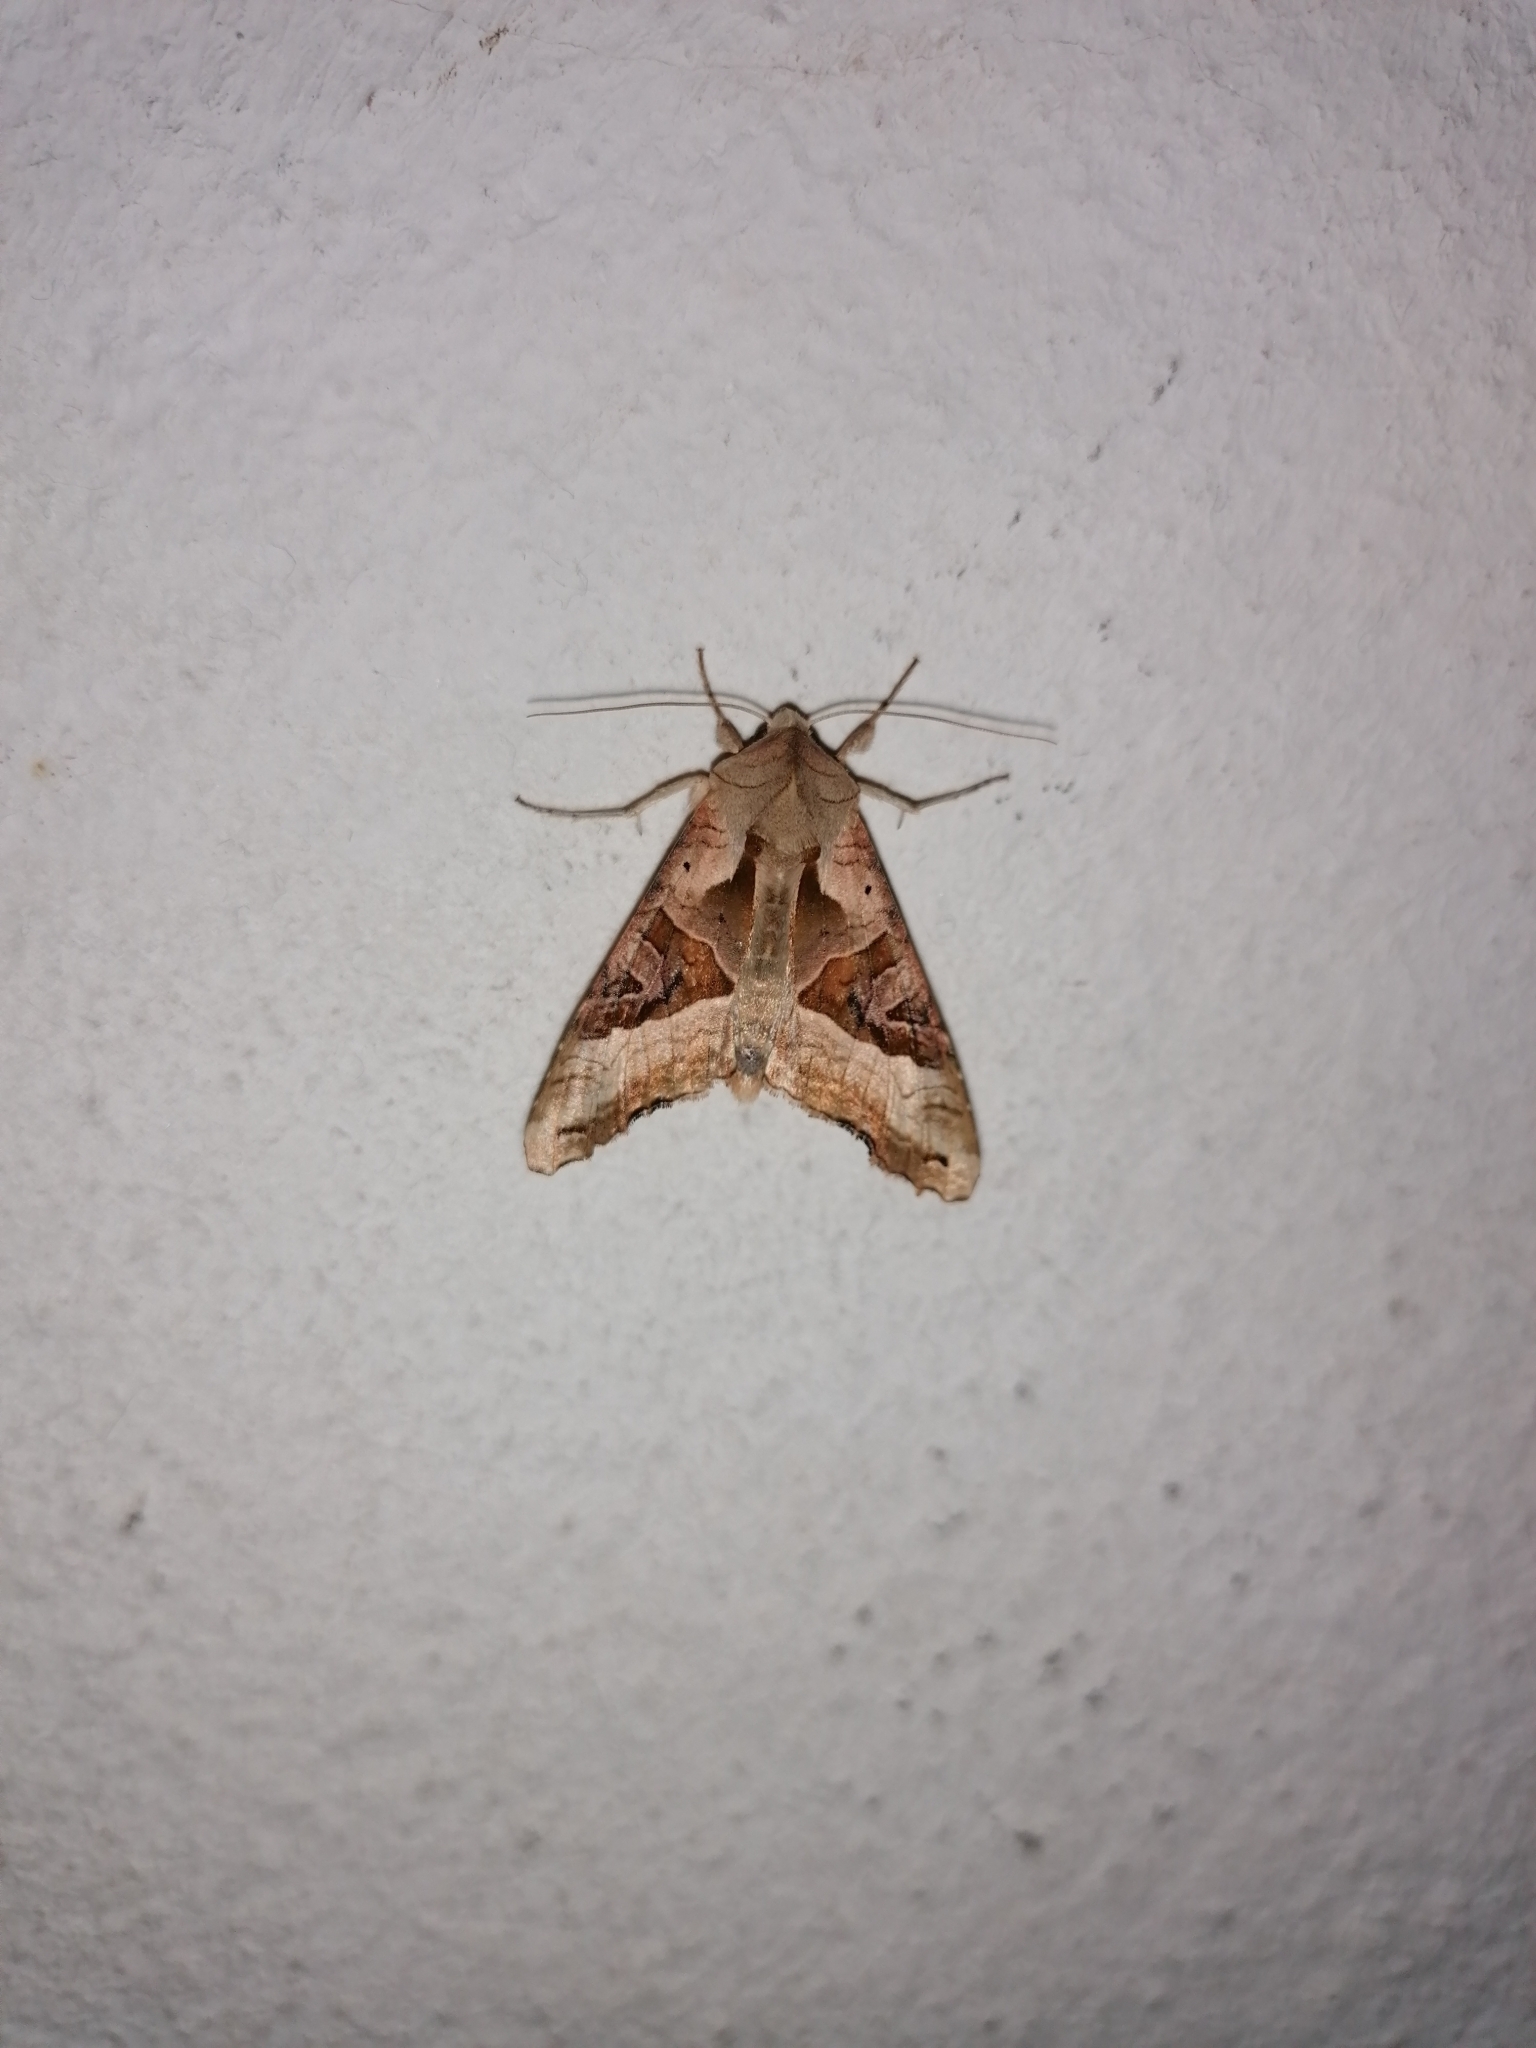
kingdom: Animalia
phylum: Arthropoda
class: Insecta
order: Lepidoptera
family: Noctuidae
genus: Phlogophora
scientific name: Phlogophora meticulosa
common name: Angle shades
